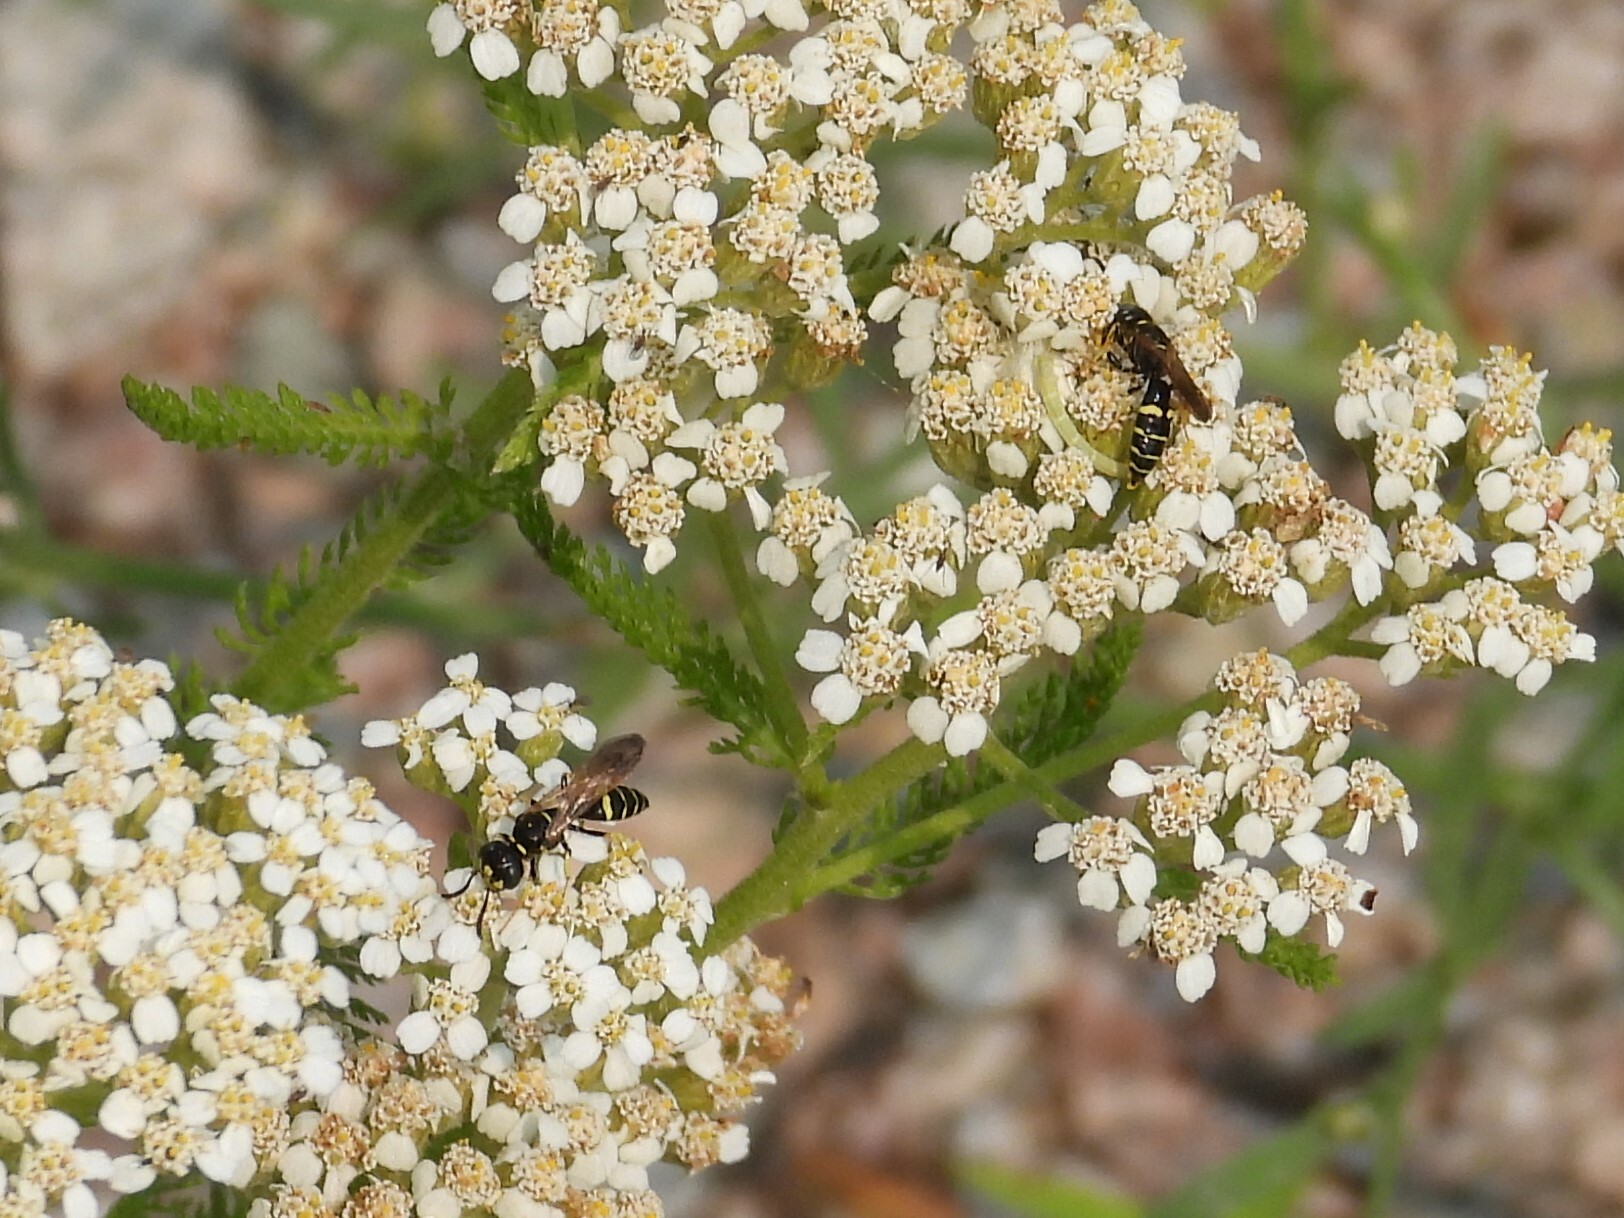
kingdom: Animalia
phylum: Arthropoda
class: Insecta
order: Hymenoptera
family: Crabronidae
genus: Philanthus
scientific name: Philanthus bilunatus
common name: Two moons beewolf
